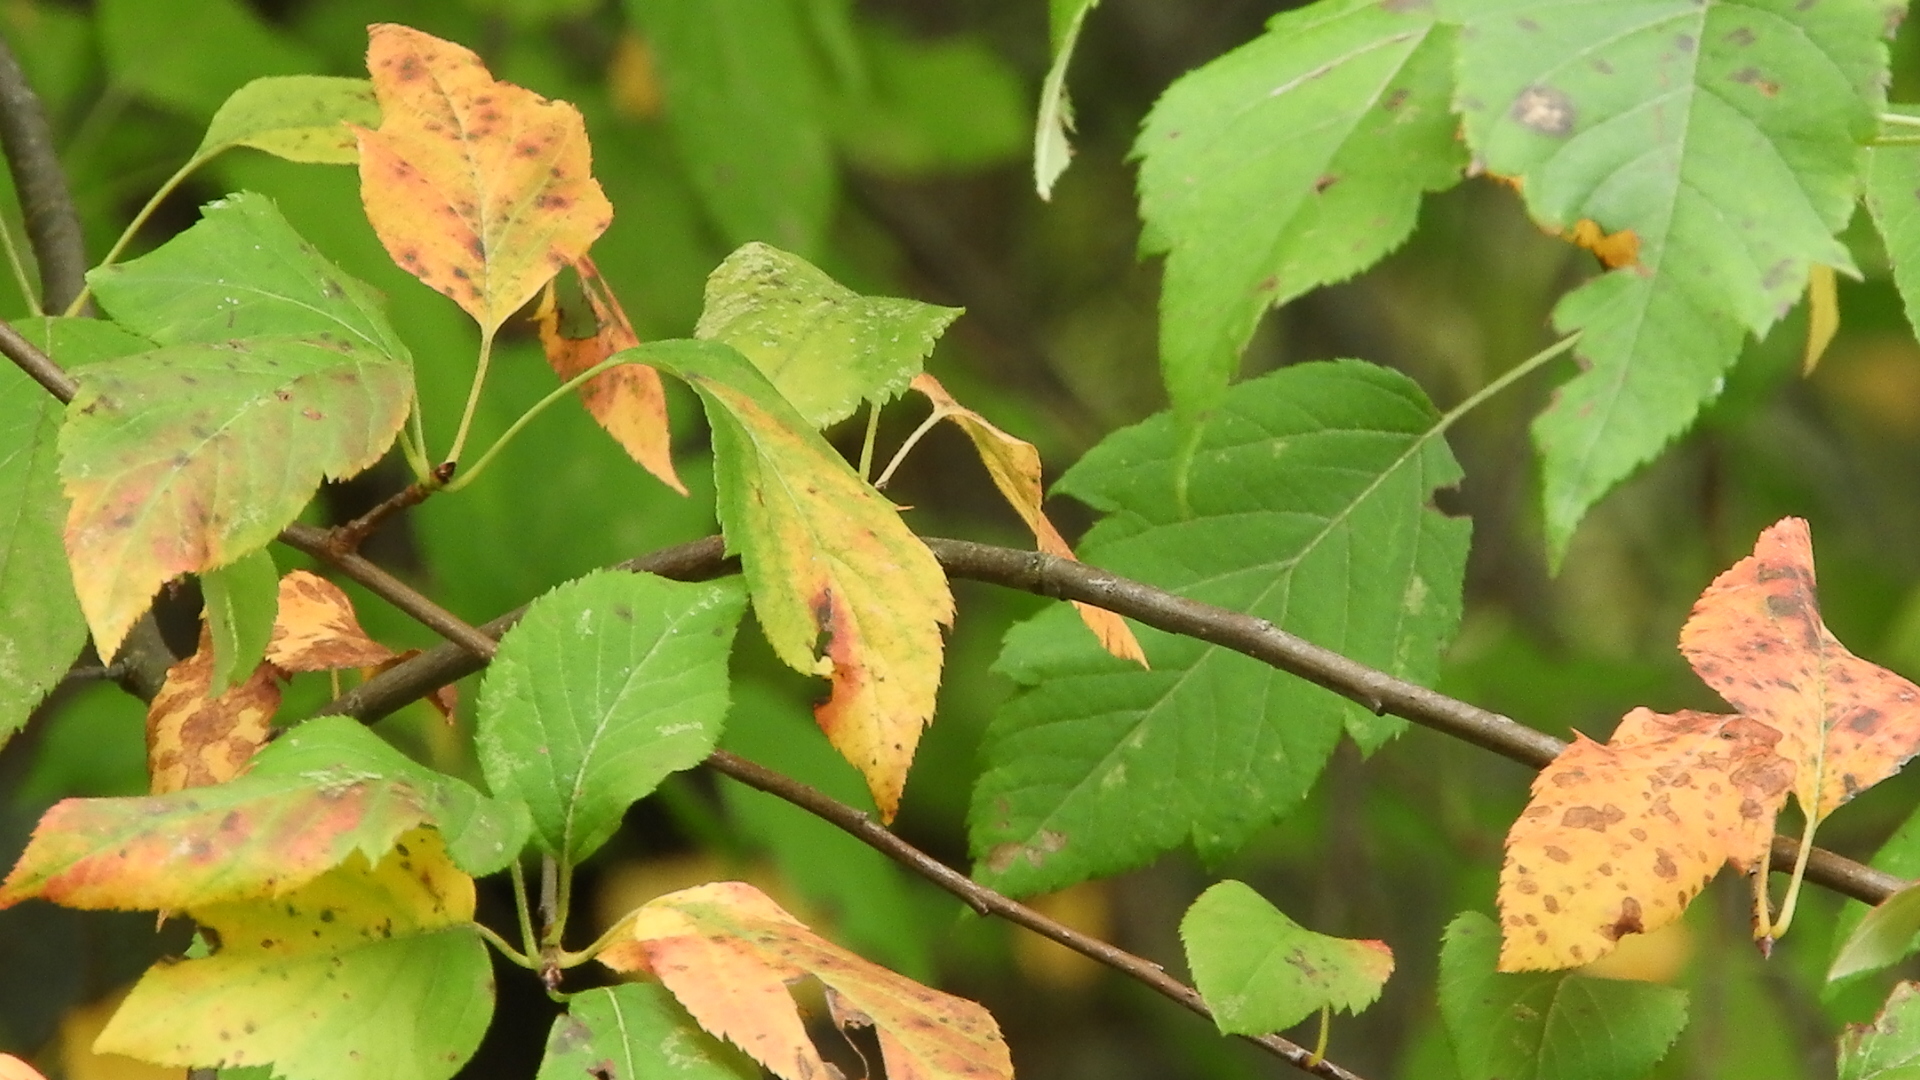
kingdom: Plantae
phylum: Tracheophyta
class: Magnoliopsida
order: Rosales
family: Rosaceae
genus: Malus
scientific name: Malus fusca
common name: Oregon crab apple
